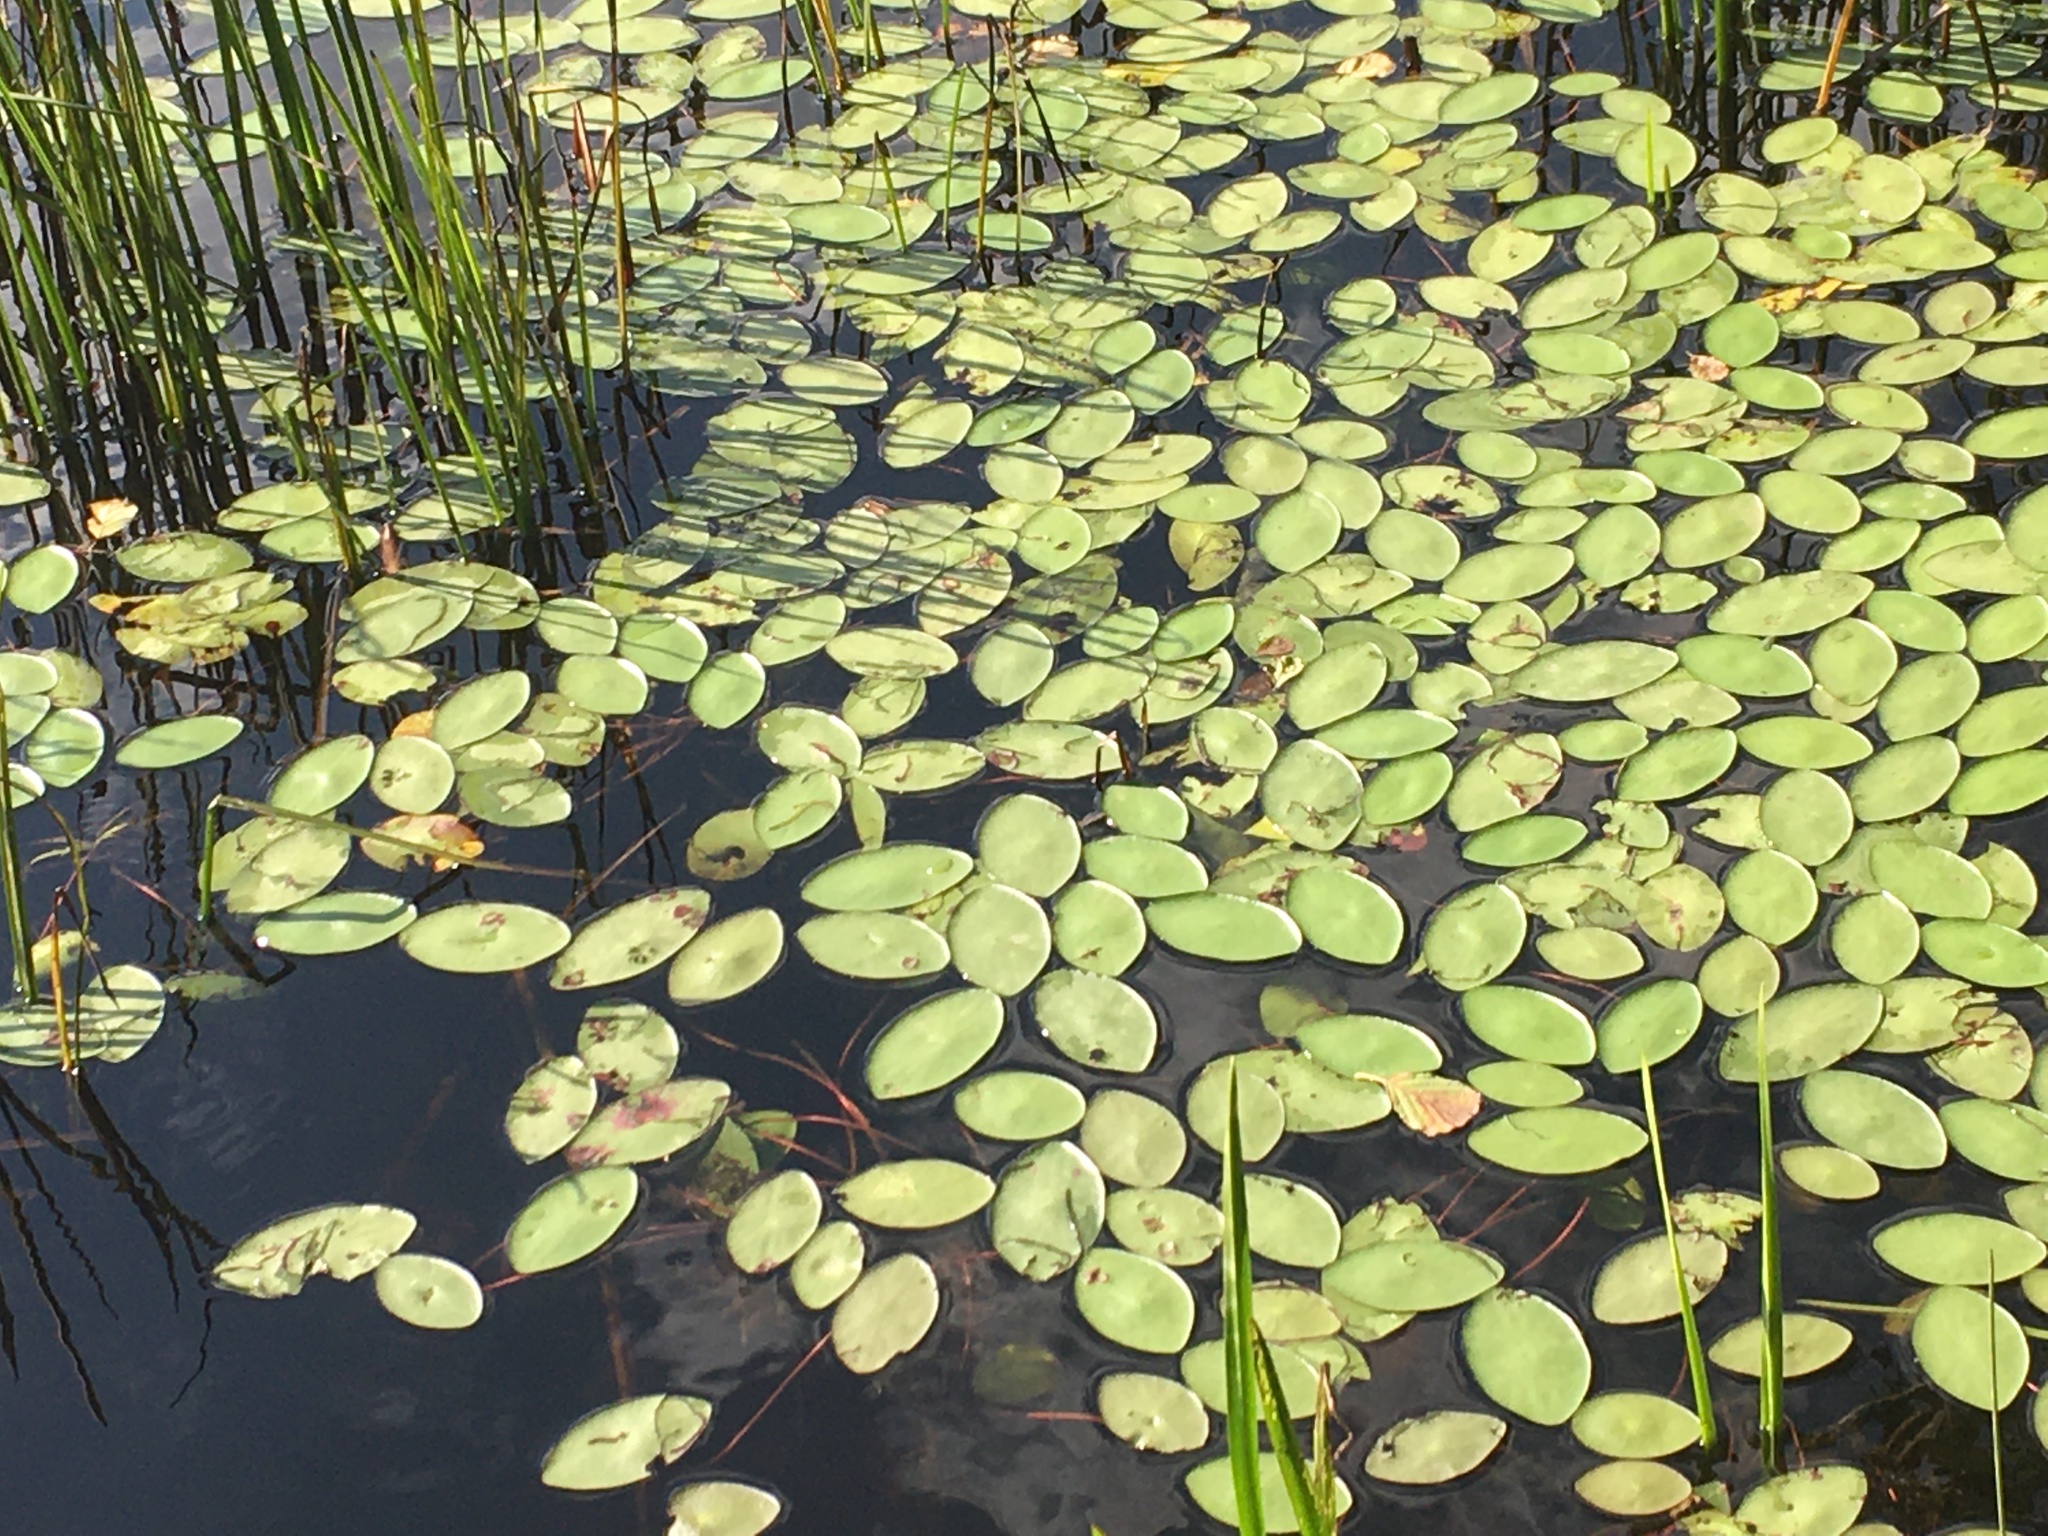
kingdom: Plantae
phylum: Tracheophyta
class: Magnoliopsida
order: Nymphaeales
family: Cabombaceae
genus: Brasenia
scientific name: Brasenia schreberi
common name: Water-shield
